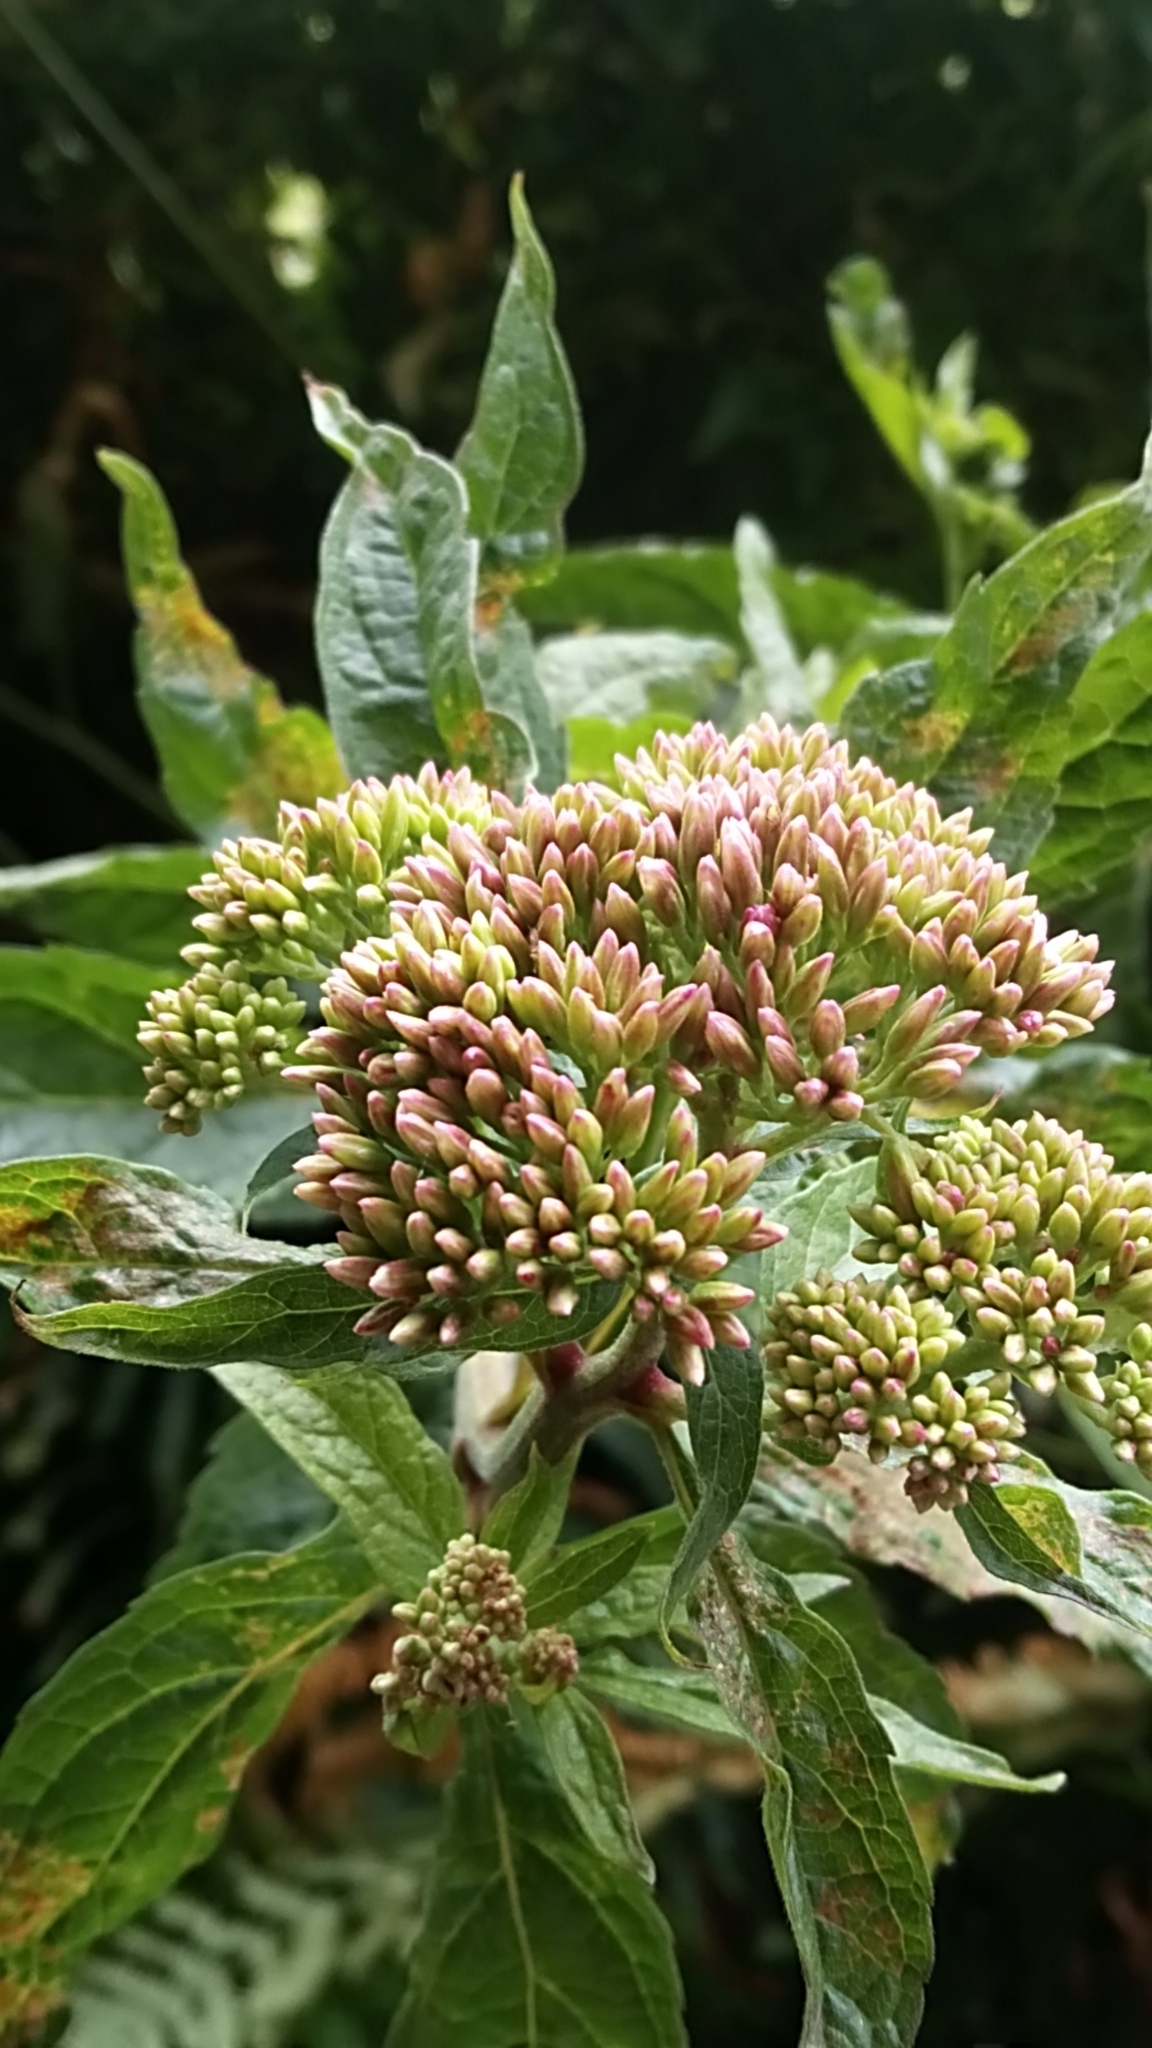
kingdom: Plantae
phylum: Tracheophyta
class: Magnoliopsida
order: Asterales
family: Asteraceae
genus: Eupatorium
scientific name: Eupatorium cannabinum
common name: Hemp-agrimony
